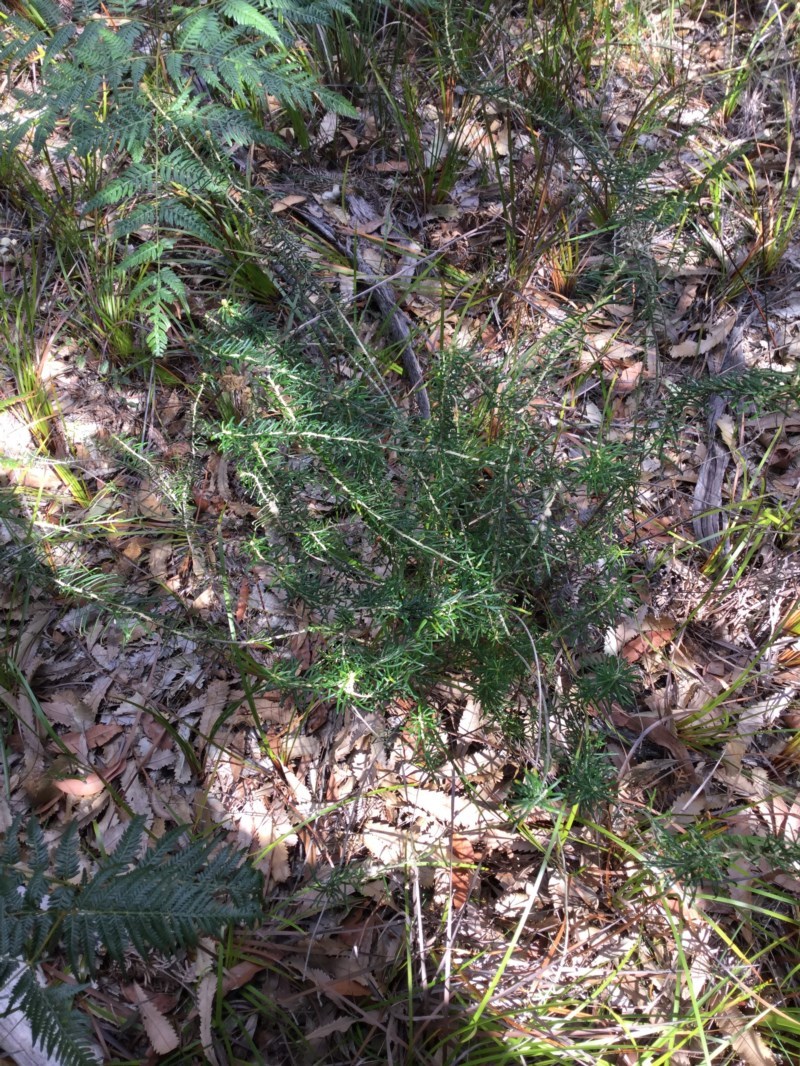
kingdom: Plantae
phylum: Tracheophyta
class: Magnoliopsida
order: Apiales
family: Araliaceae
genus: Astrotricha
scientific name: Astrotricha
